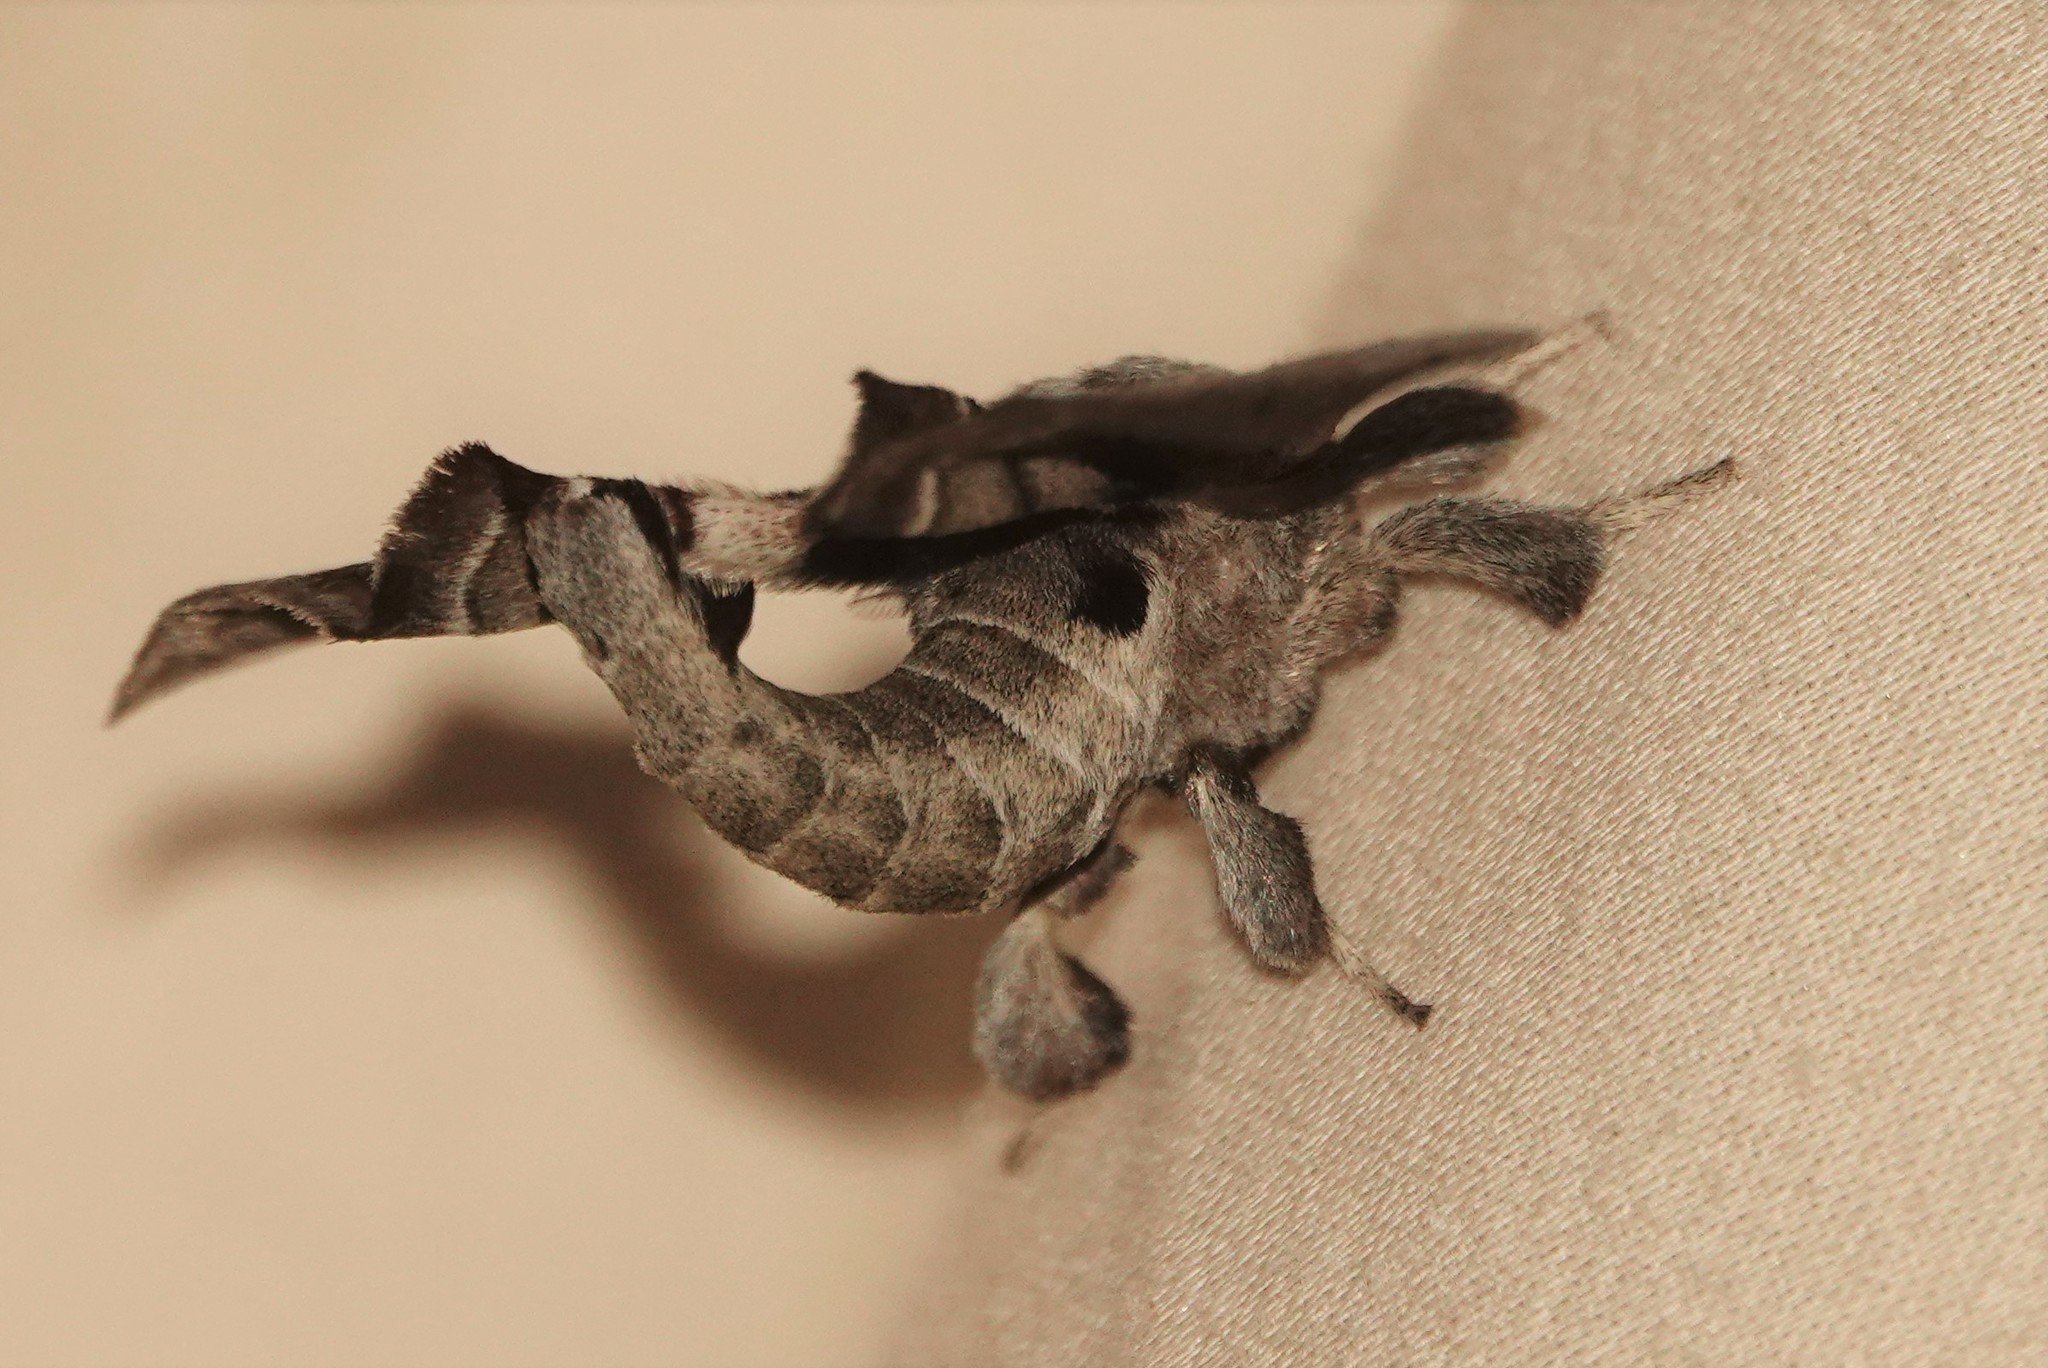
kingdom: Animalia
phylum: Arthropoda
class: Insecta
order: Lepidoptera
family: Apatelodidae
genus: Hygrochroa
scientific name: Hygrochroa Apatelodes torrefacta
